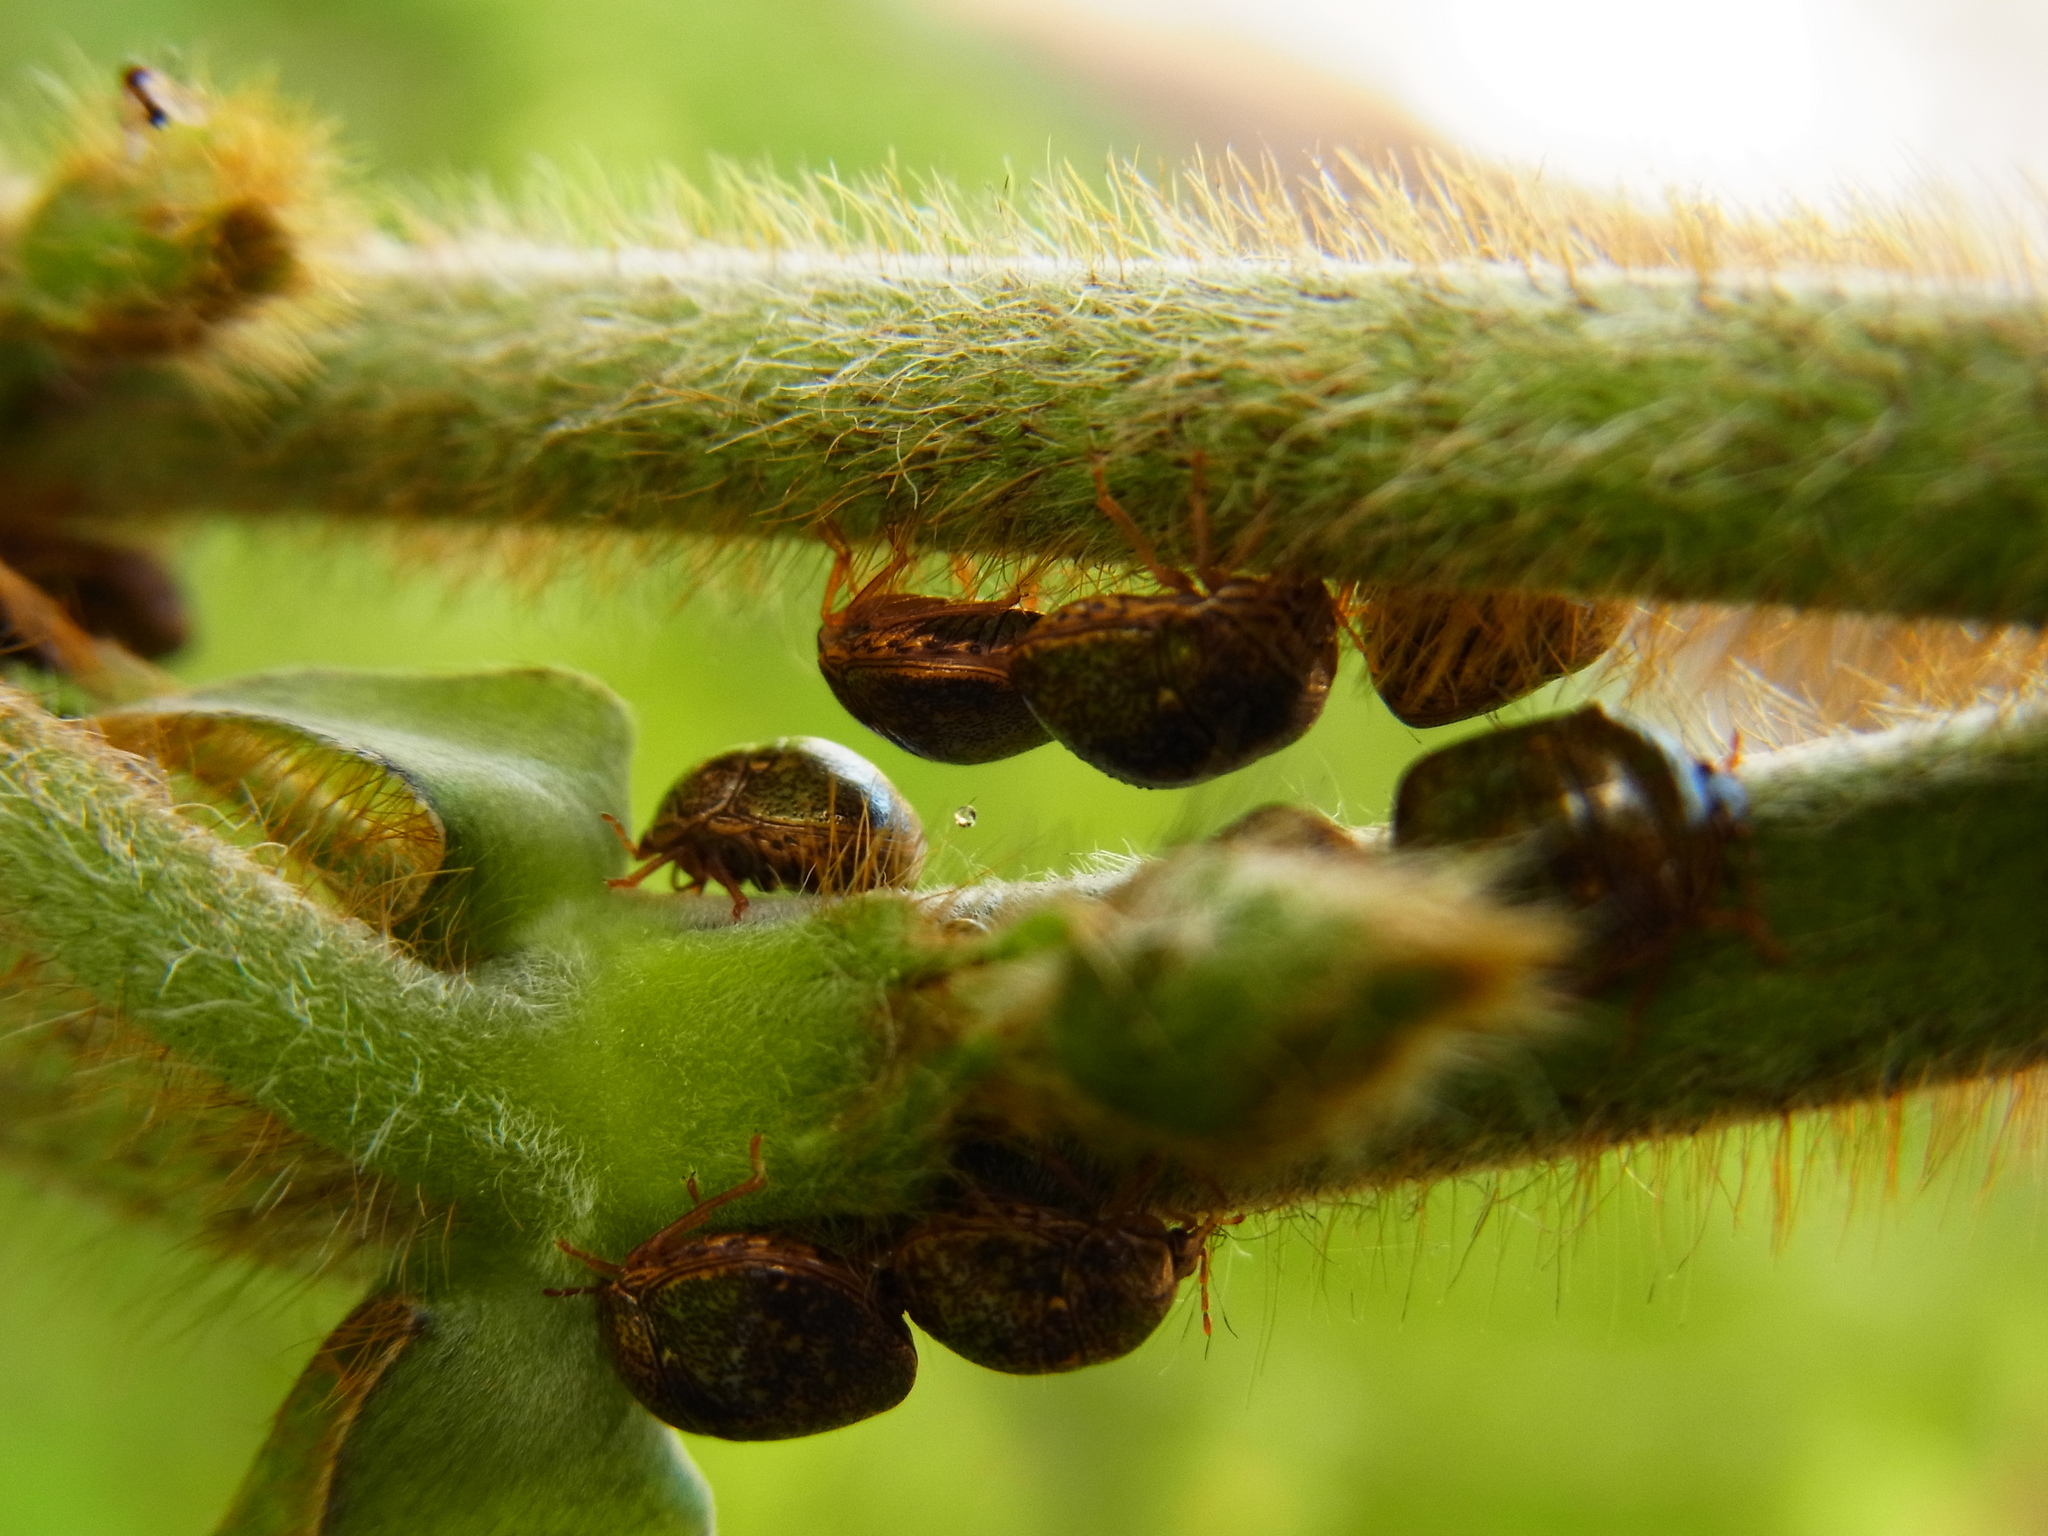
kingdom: Animalia
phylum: Arthropoda
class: Insecta
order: Hemiptera
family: Plataspidae
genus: Megacopta
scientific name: Megacopta punctatissima
